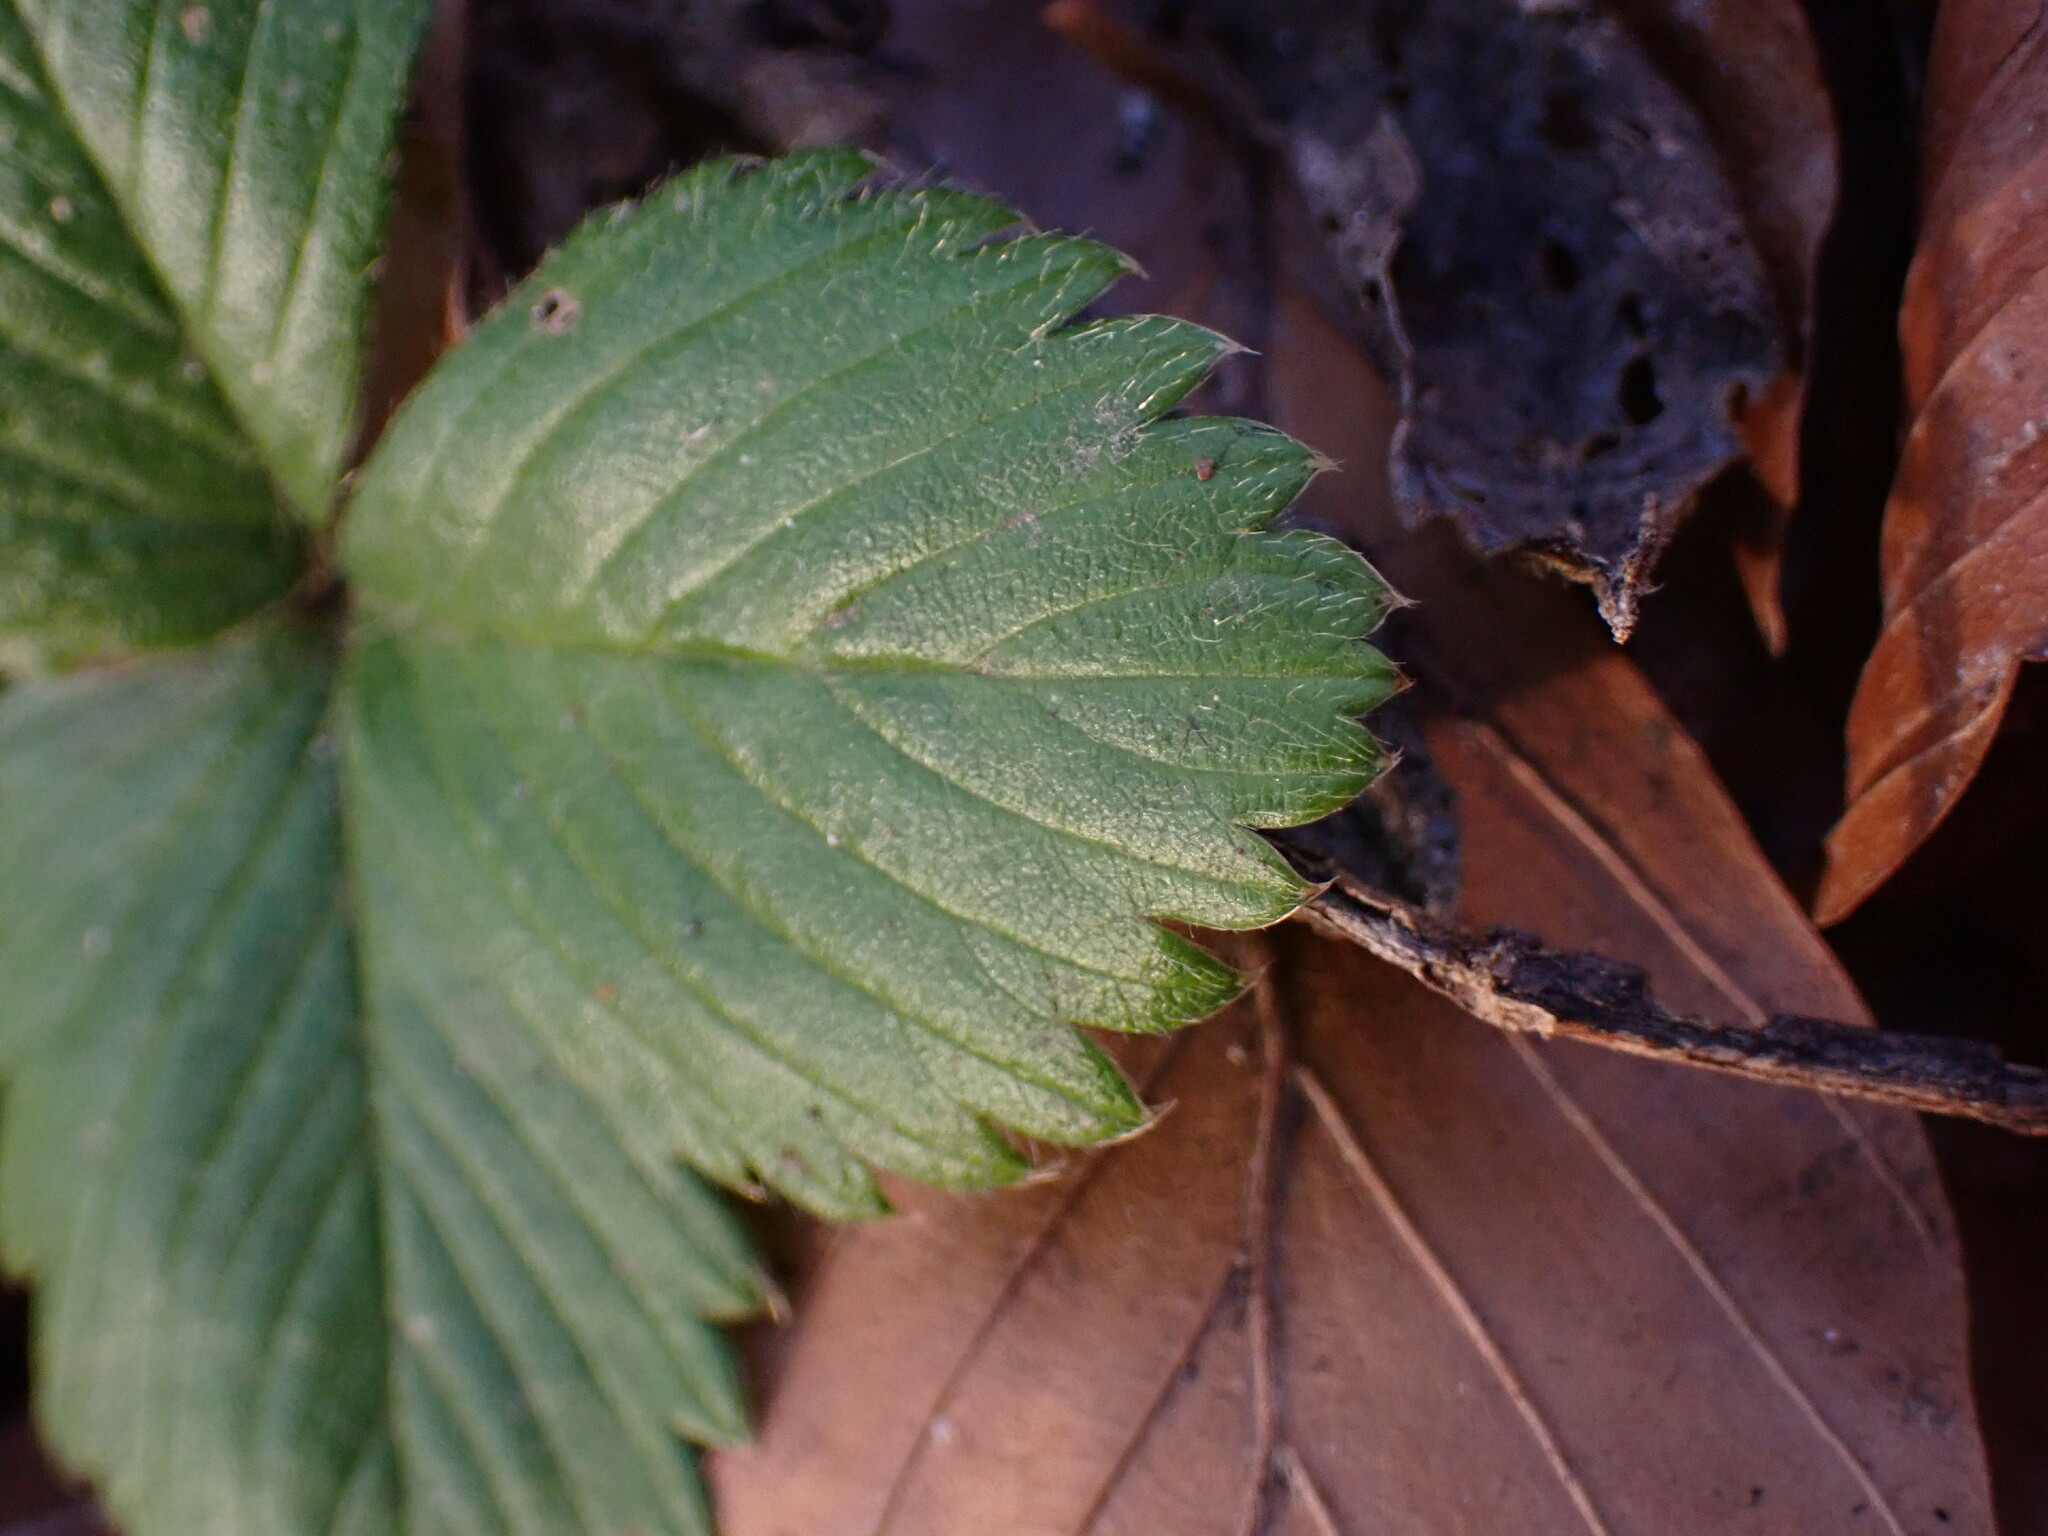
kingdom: Plantae
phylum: Tracheophyta
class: Magnoliopsida
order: Rosales
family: Rosaceae
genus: Fragaria
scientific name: Fragaria vesca
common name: Wild strawberry
